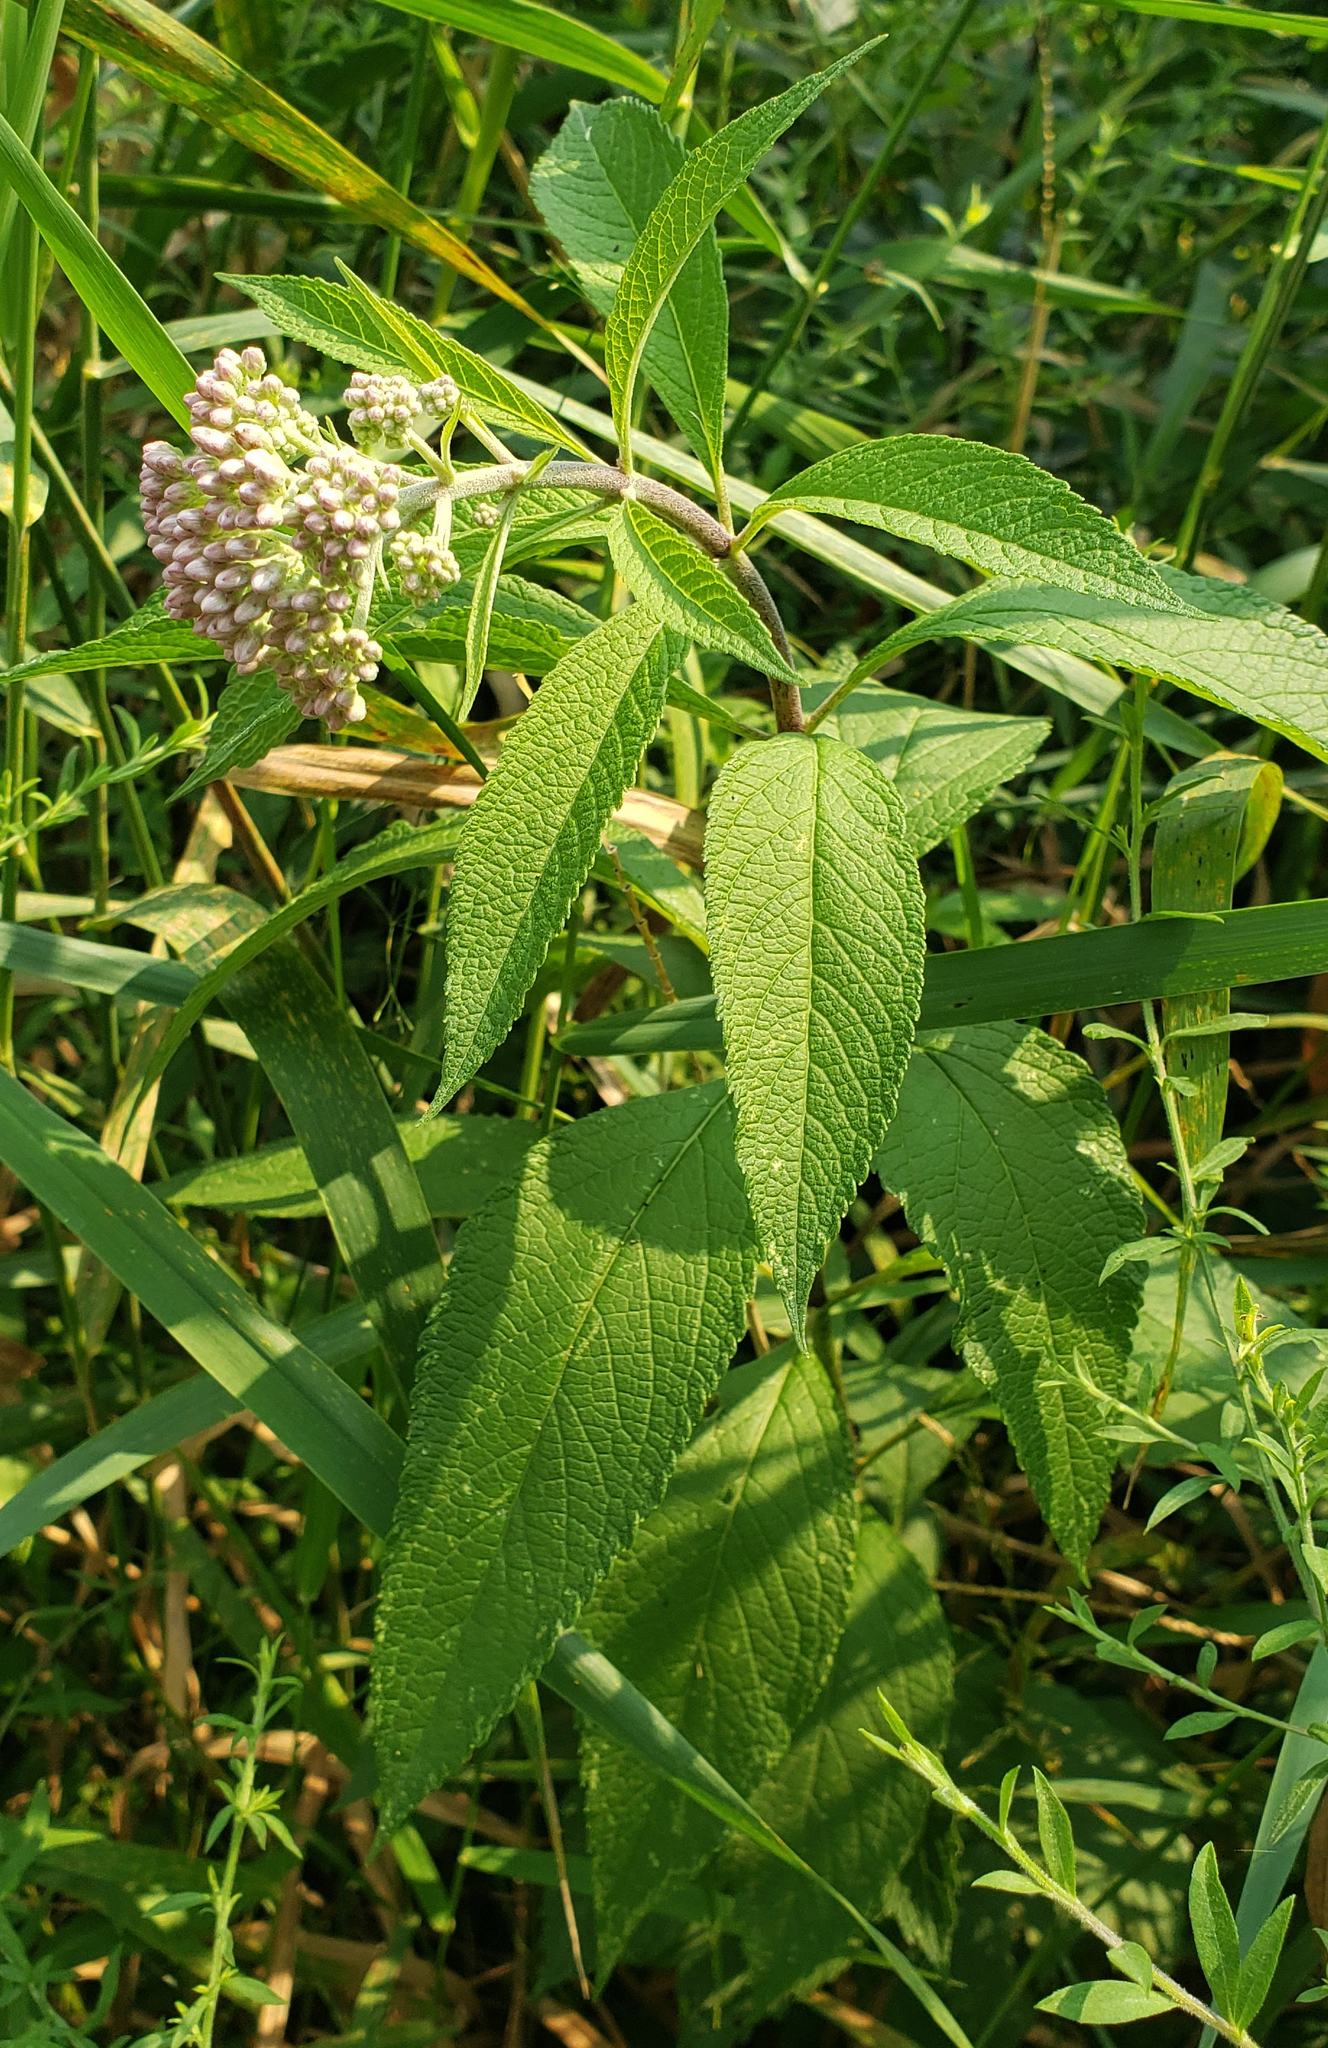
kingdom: Plantae
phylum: Tracheophyta
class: Magnoliopsida
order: Asterales
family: Asteraceae
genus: Eutrochium
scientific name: Eutrochium maculatum
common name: Spotted joe pye weed
